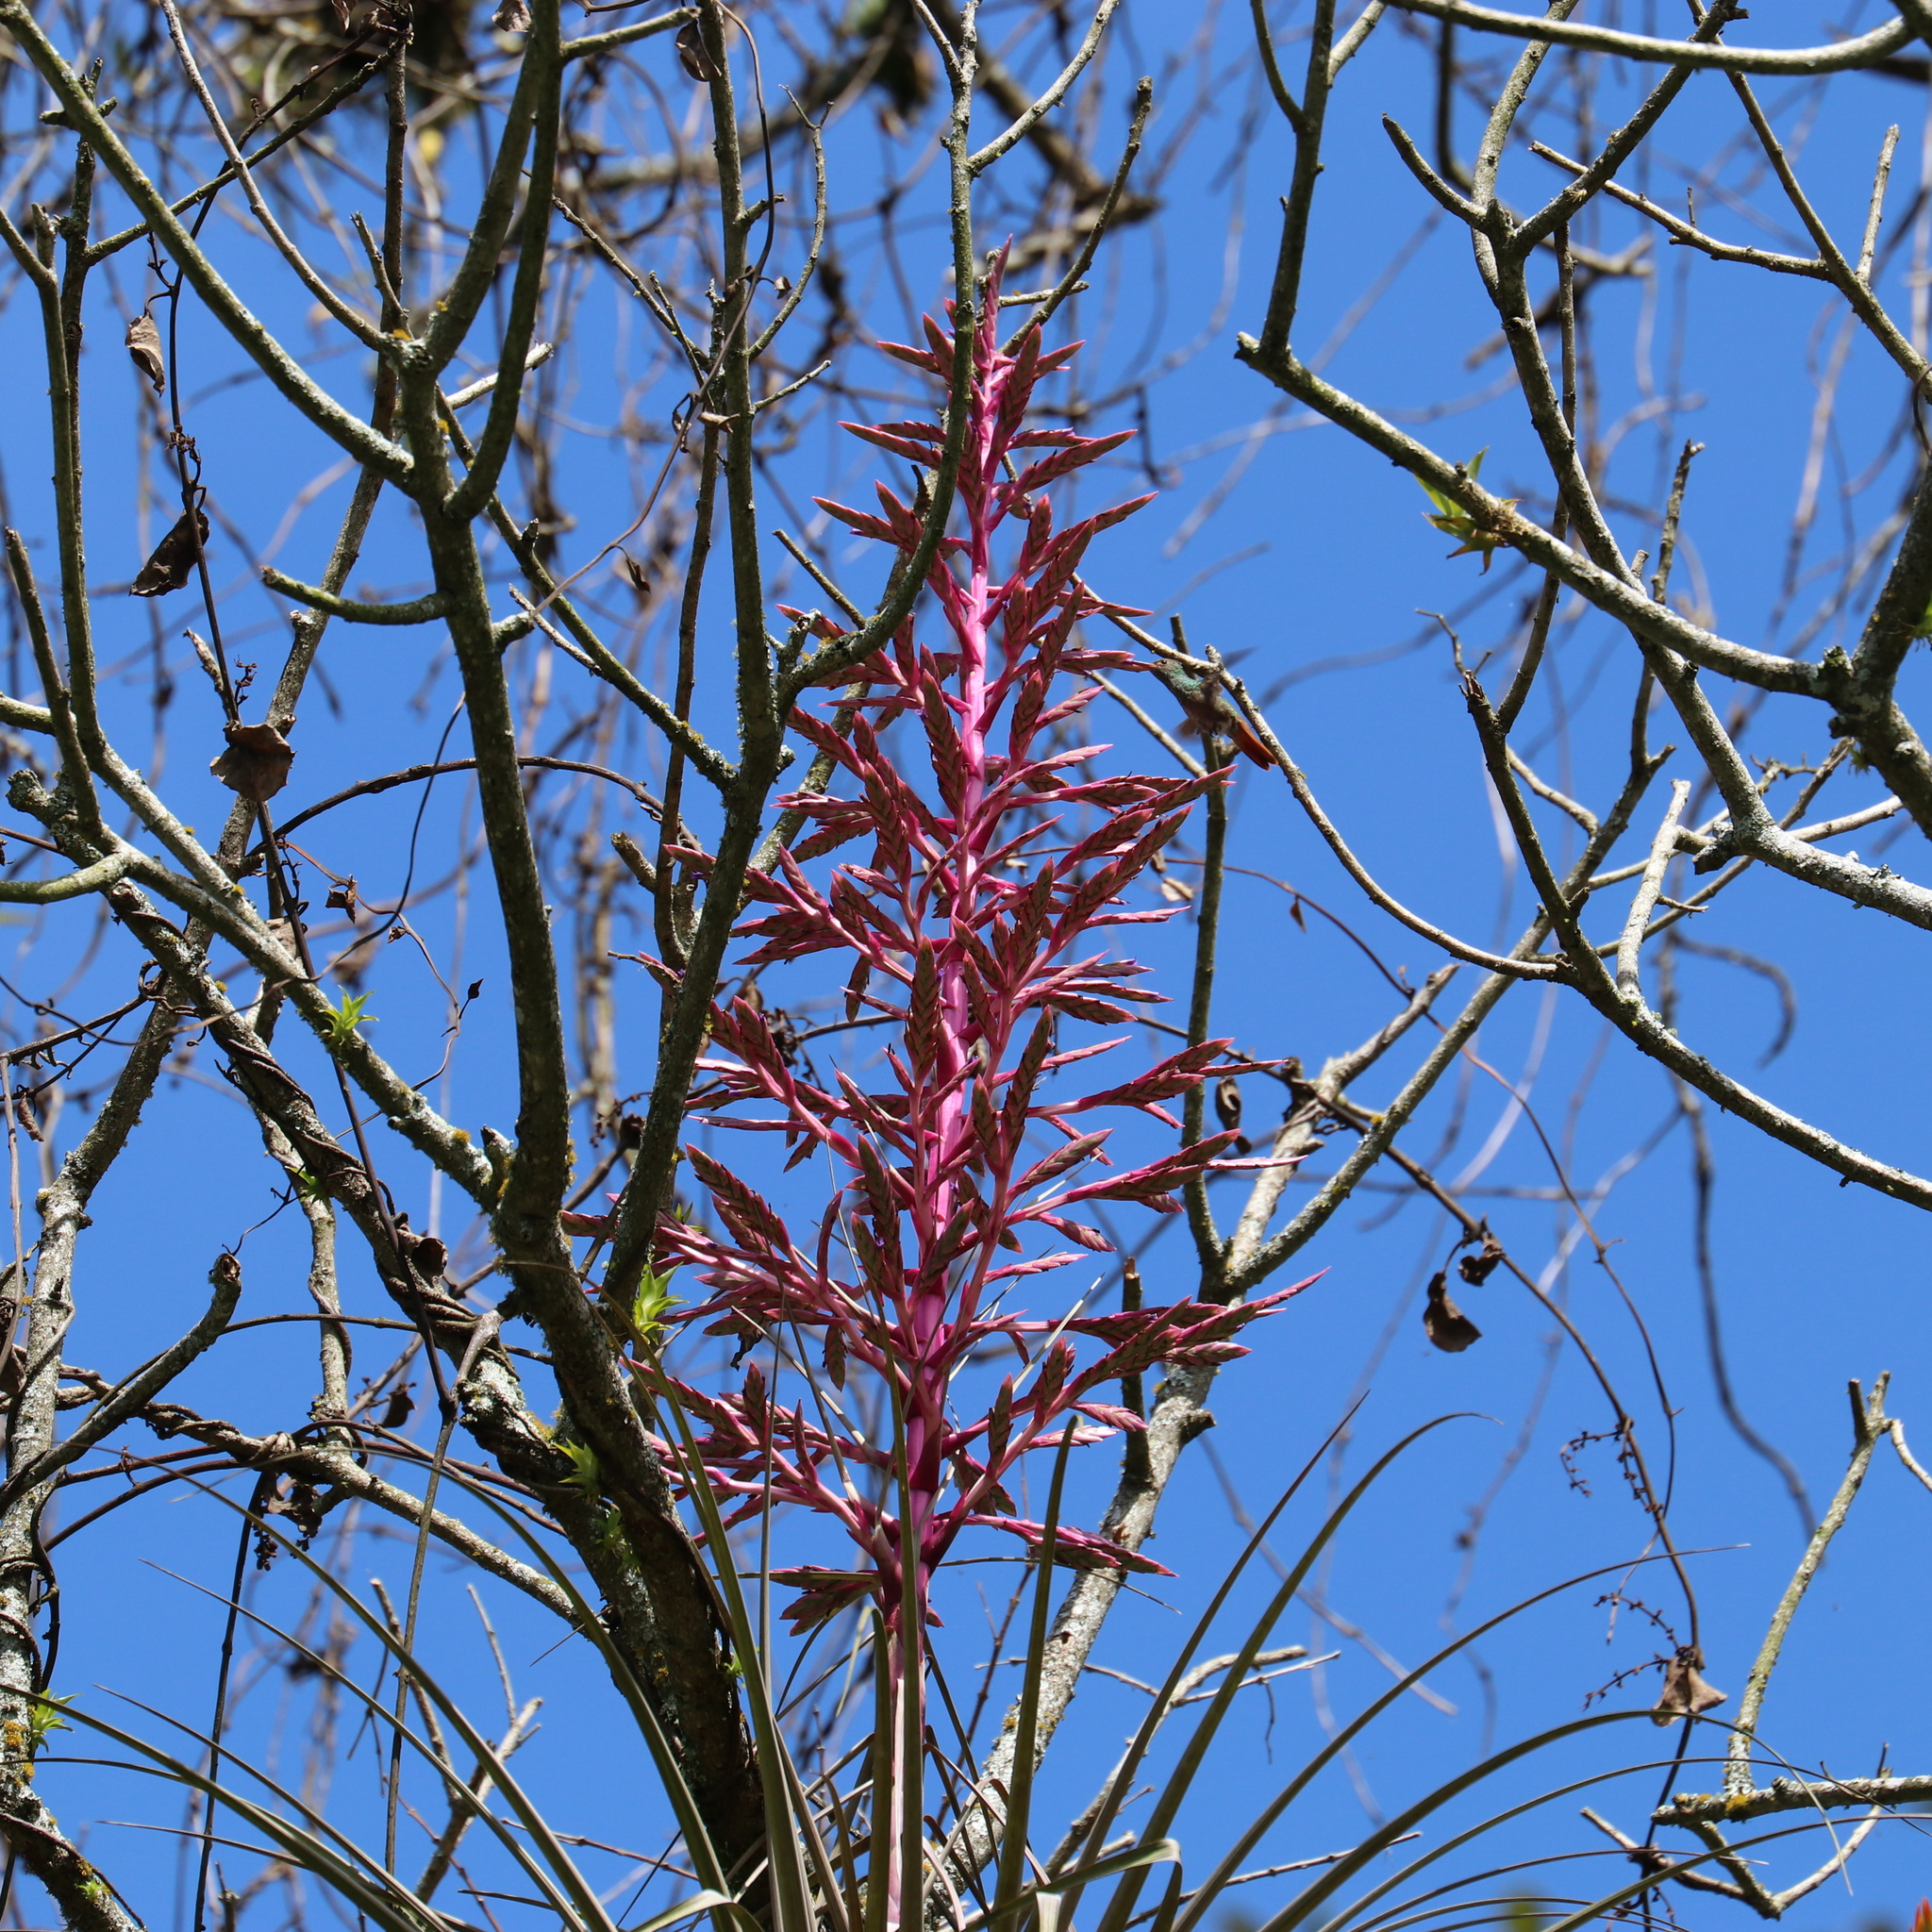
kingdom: Plantae
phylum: Tracheophyta
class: Liliopsida
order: Poales
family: Bromeliaceae
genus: Tillandsia
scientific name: Tillandsia longifolia
